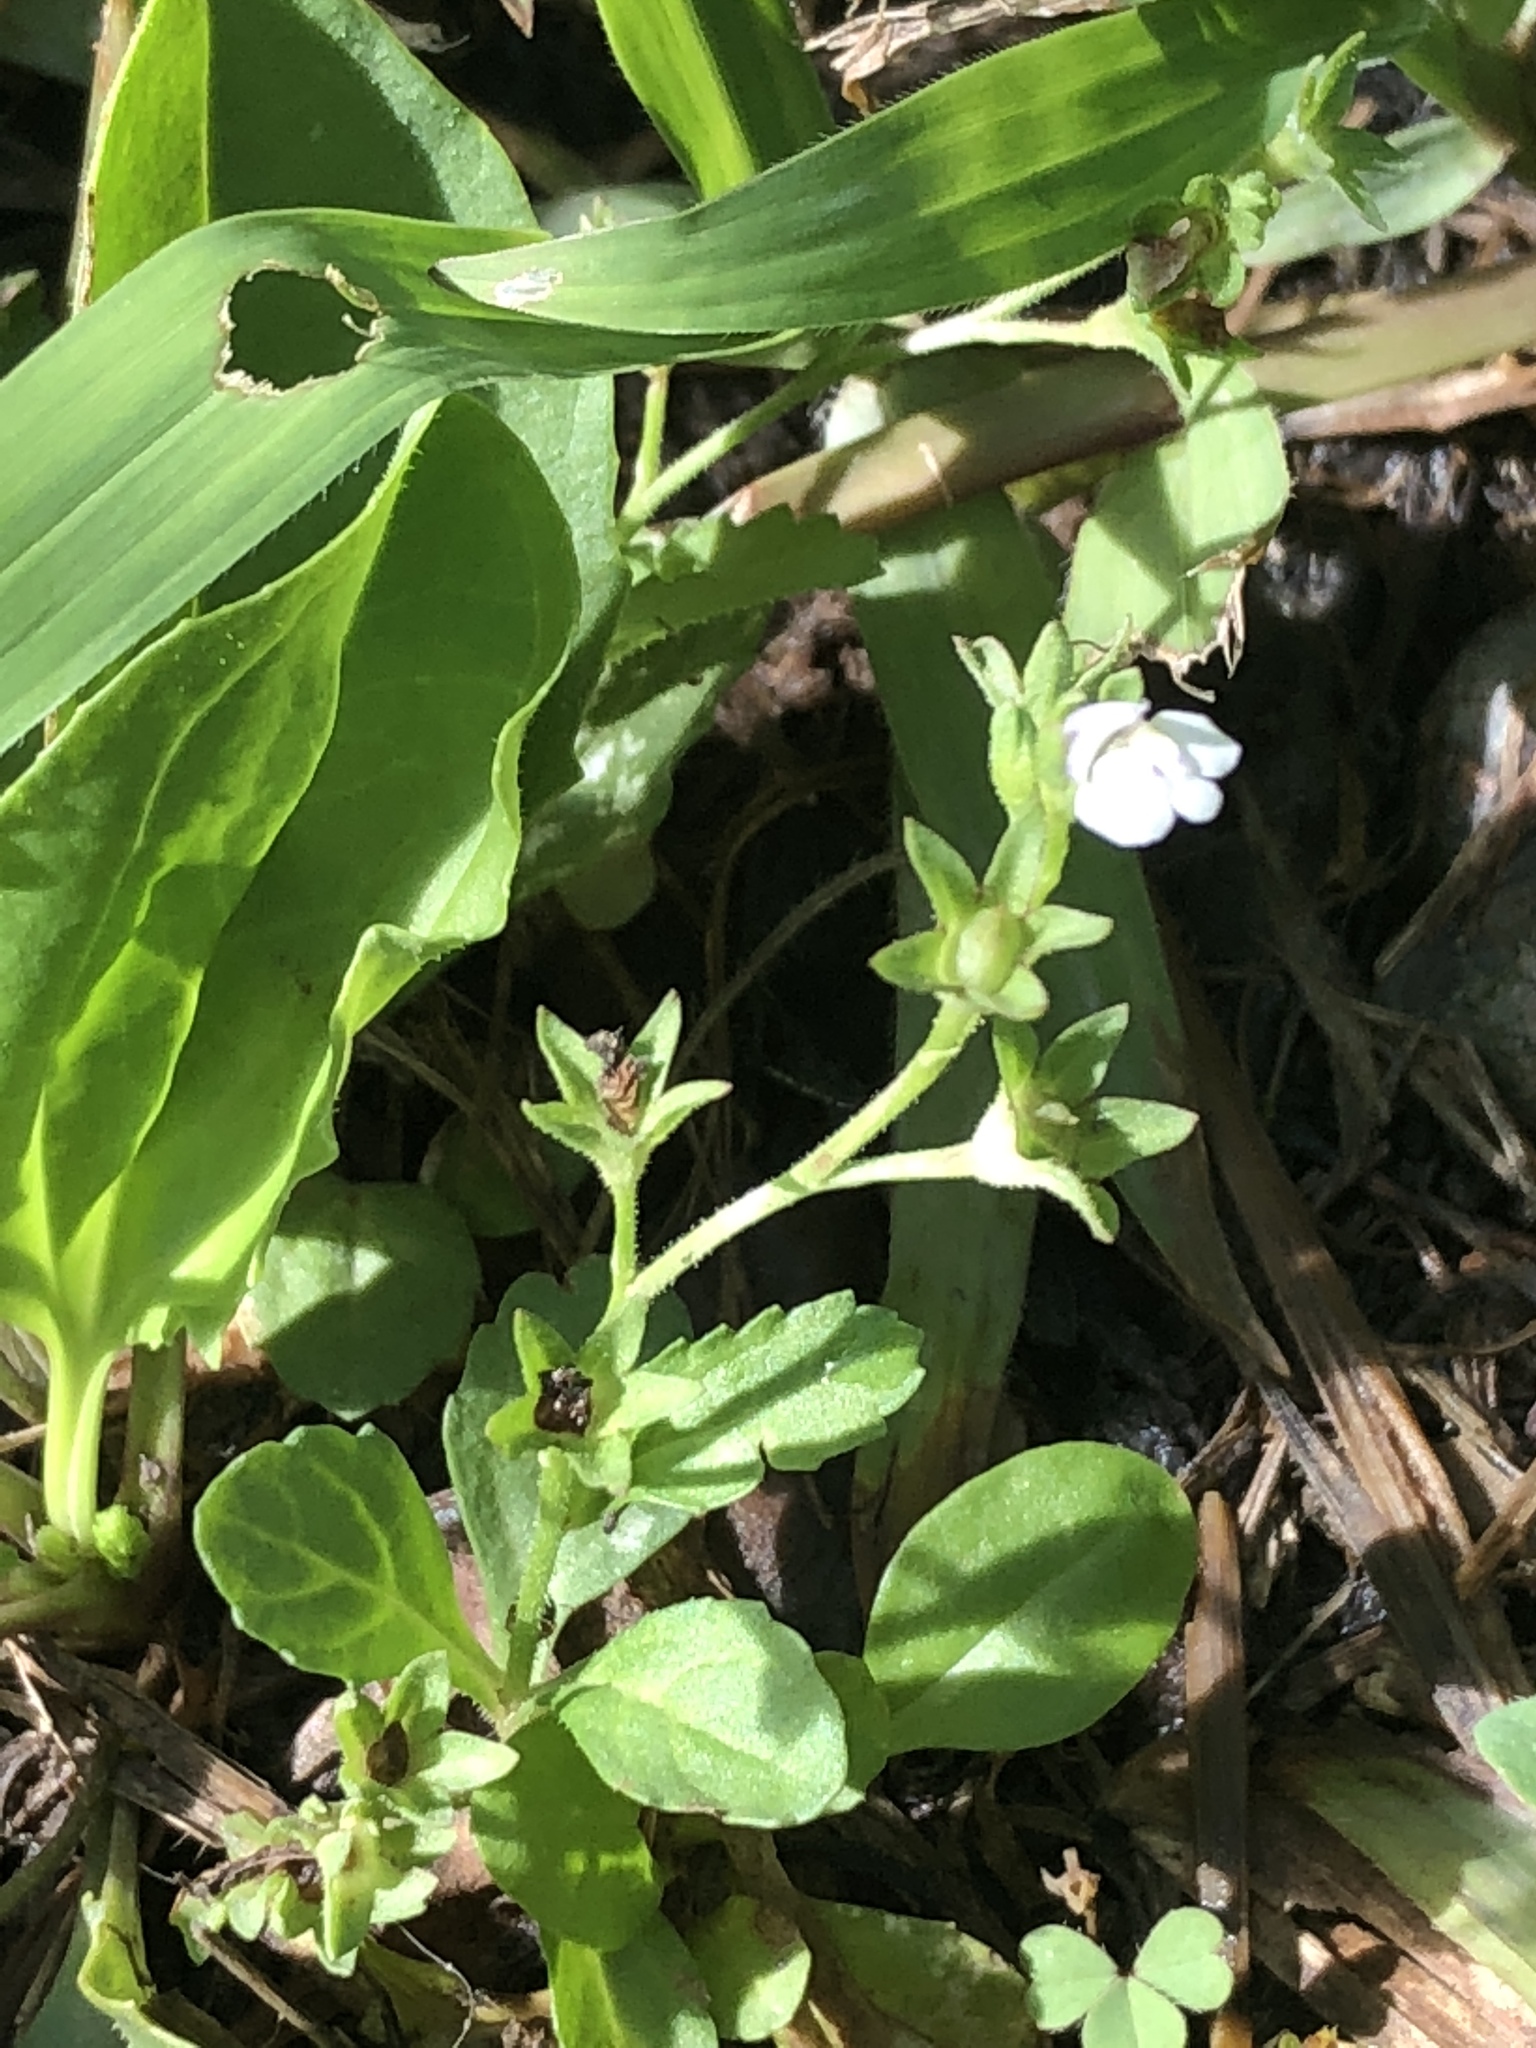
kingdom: Plantae
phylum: Tracheophyta
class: Magnoliopsida
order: Lamiales
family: Mazaceae
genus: Mazus
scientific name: Mazus pumilus
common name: Japanese mazus
